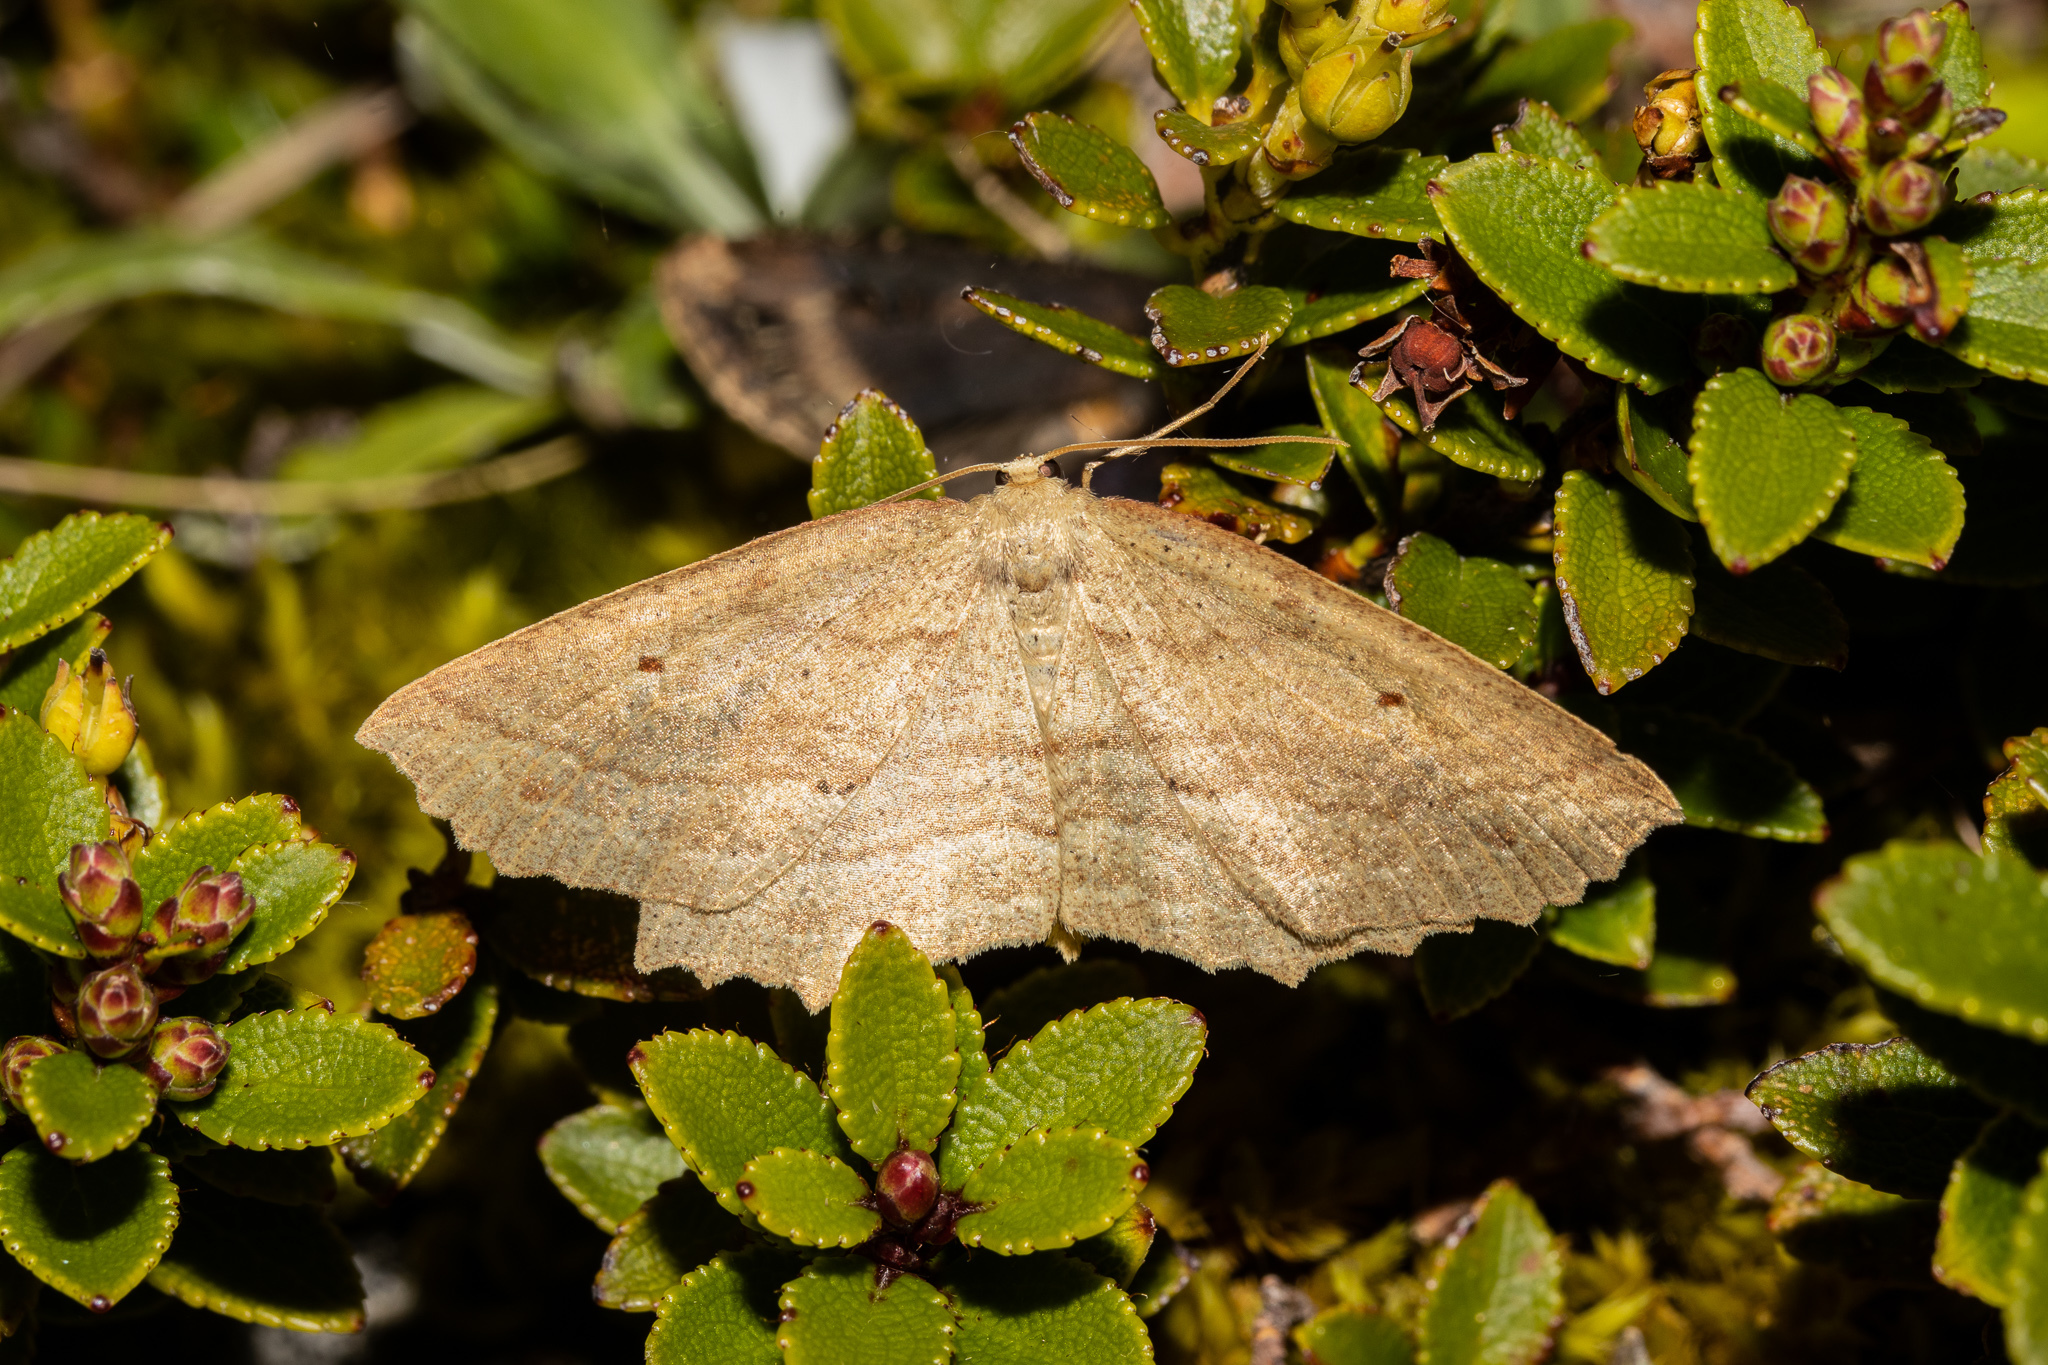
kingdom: Animalia
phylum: Arthropoda
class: Insecta
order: Lepidoptera
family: Geometridae
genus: Xyridacma
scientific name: Xyridacma veronicae
